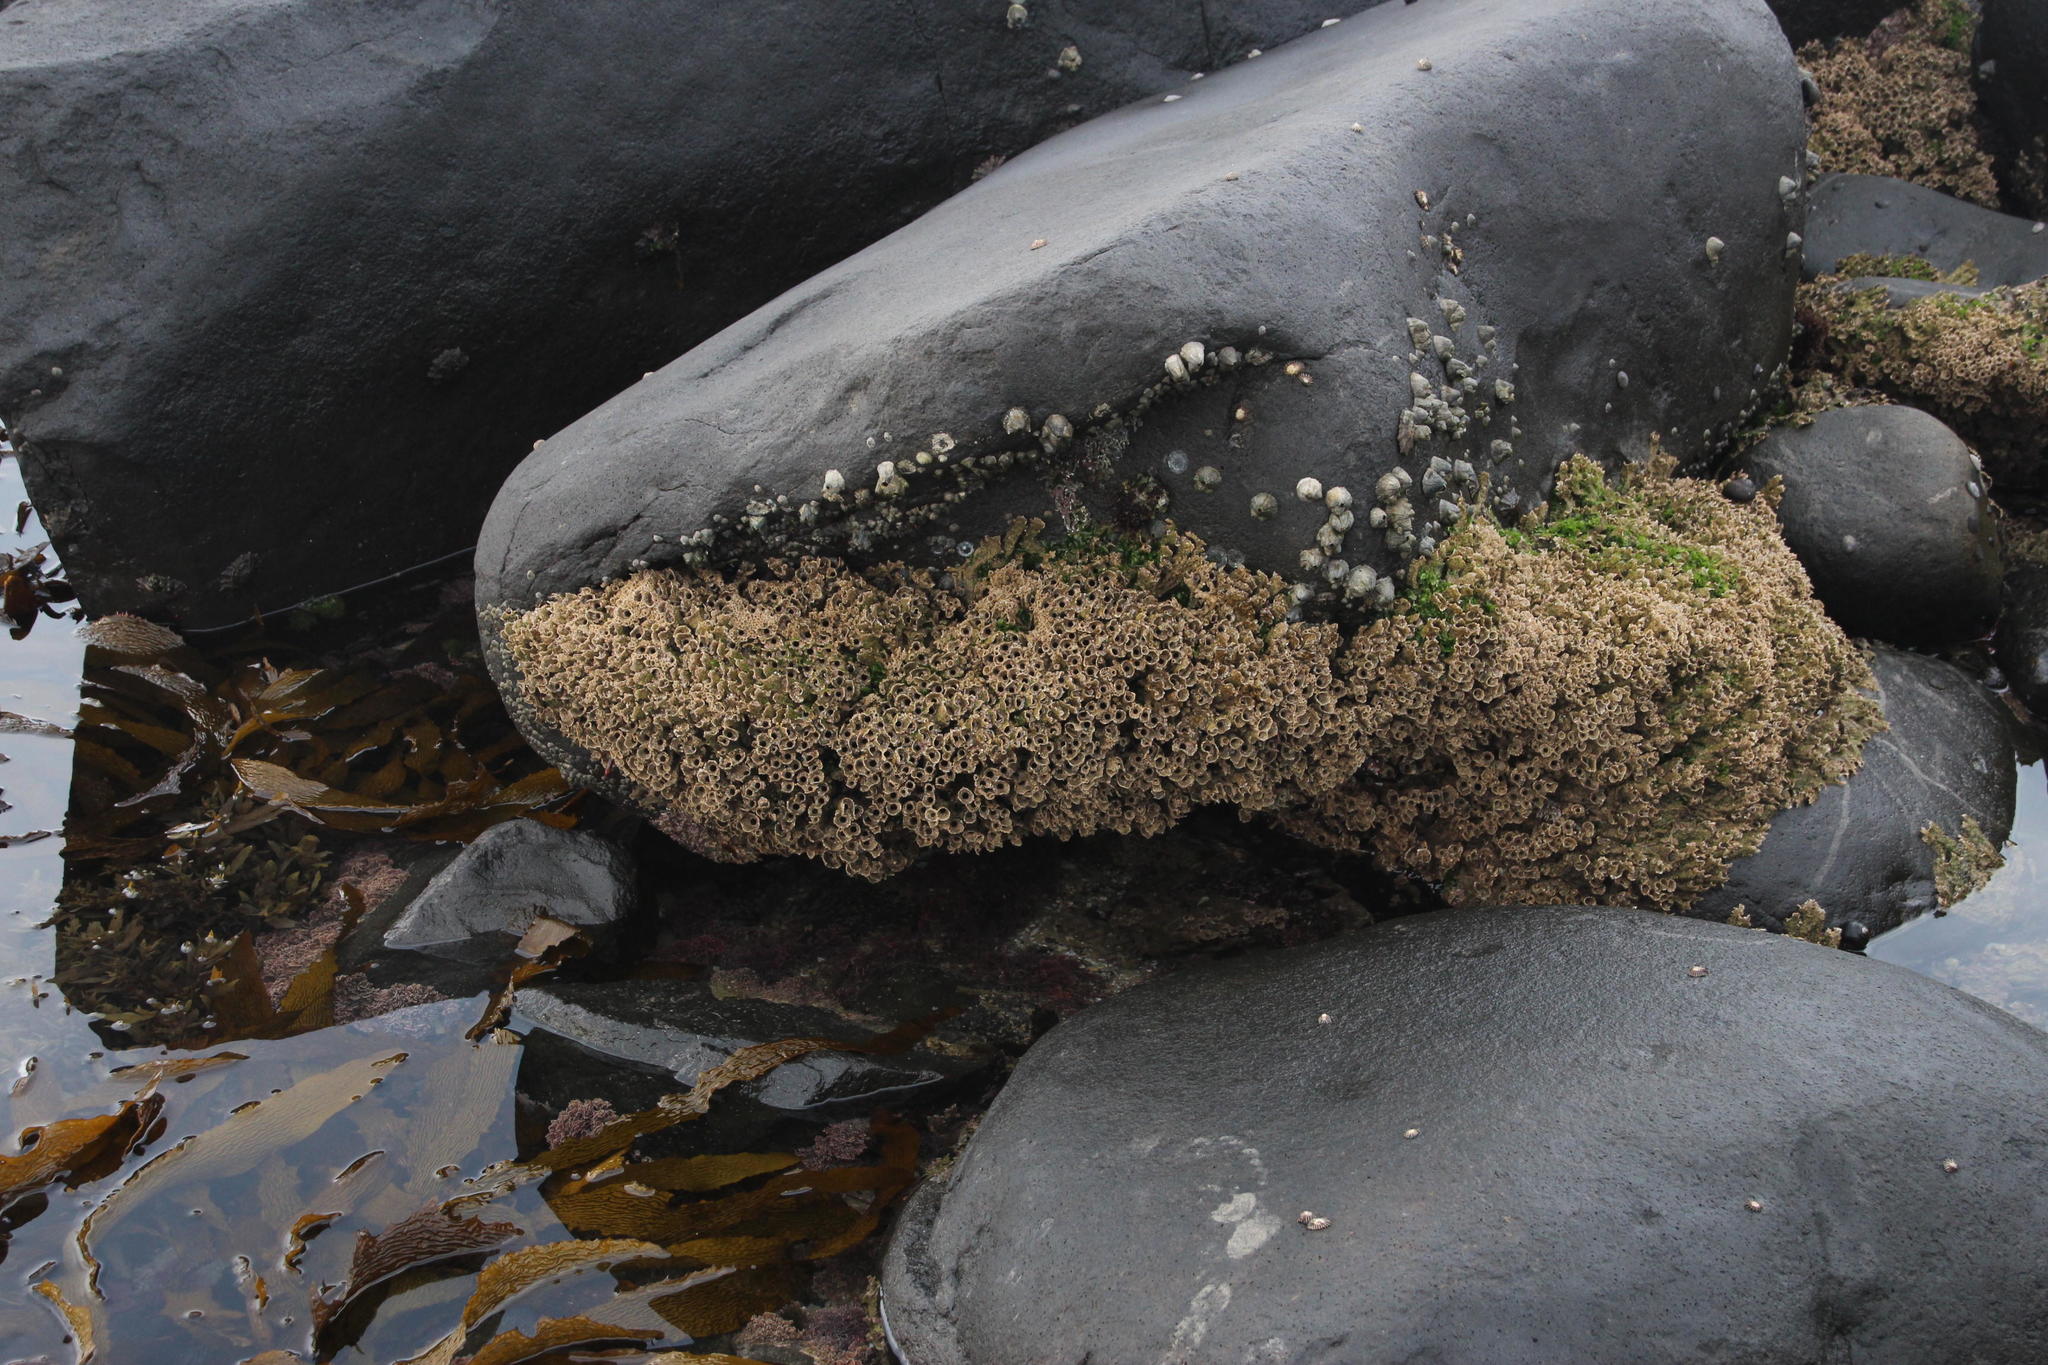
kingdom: Animalia
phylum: Annelida
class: Polychaeta
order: Sabellida
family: Sabellariidae
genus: Gunnarea
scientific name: Gunnarea gaimardi
